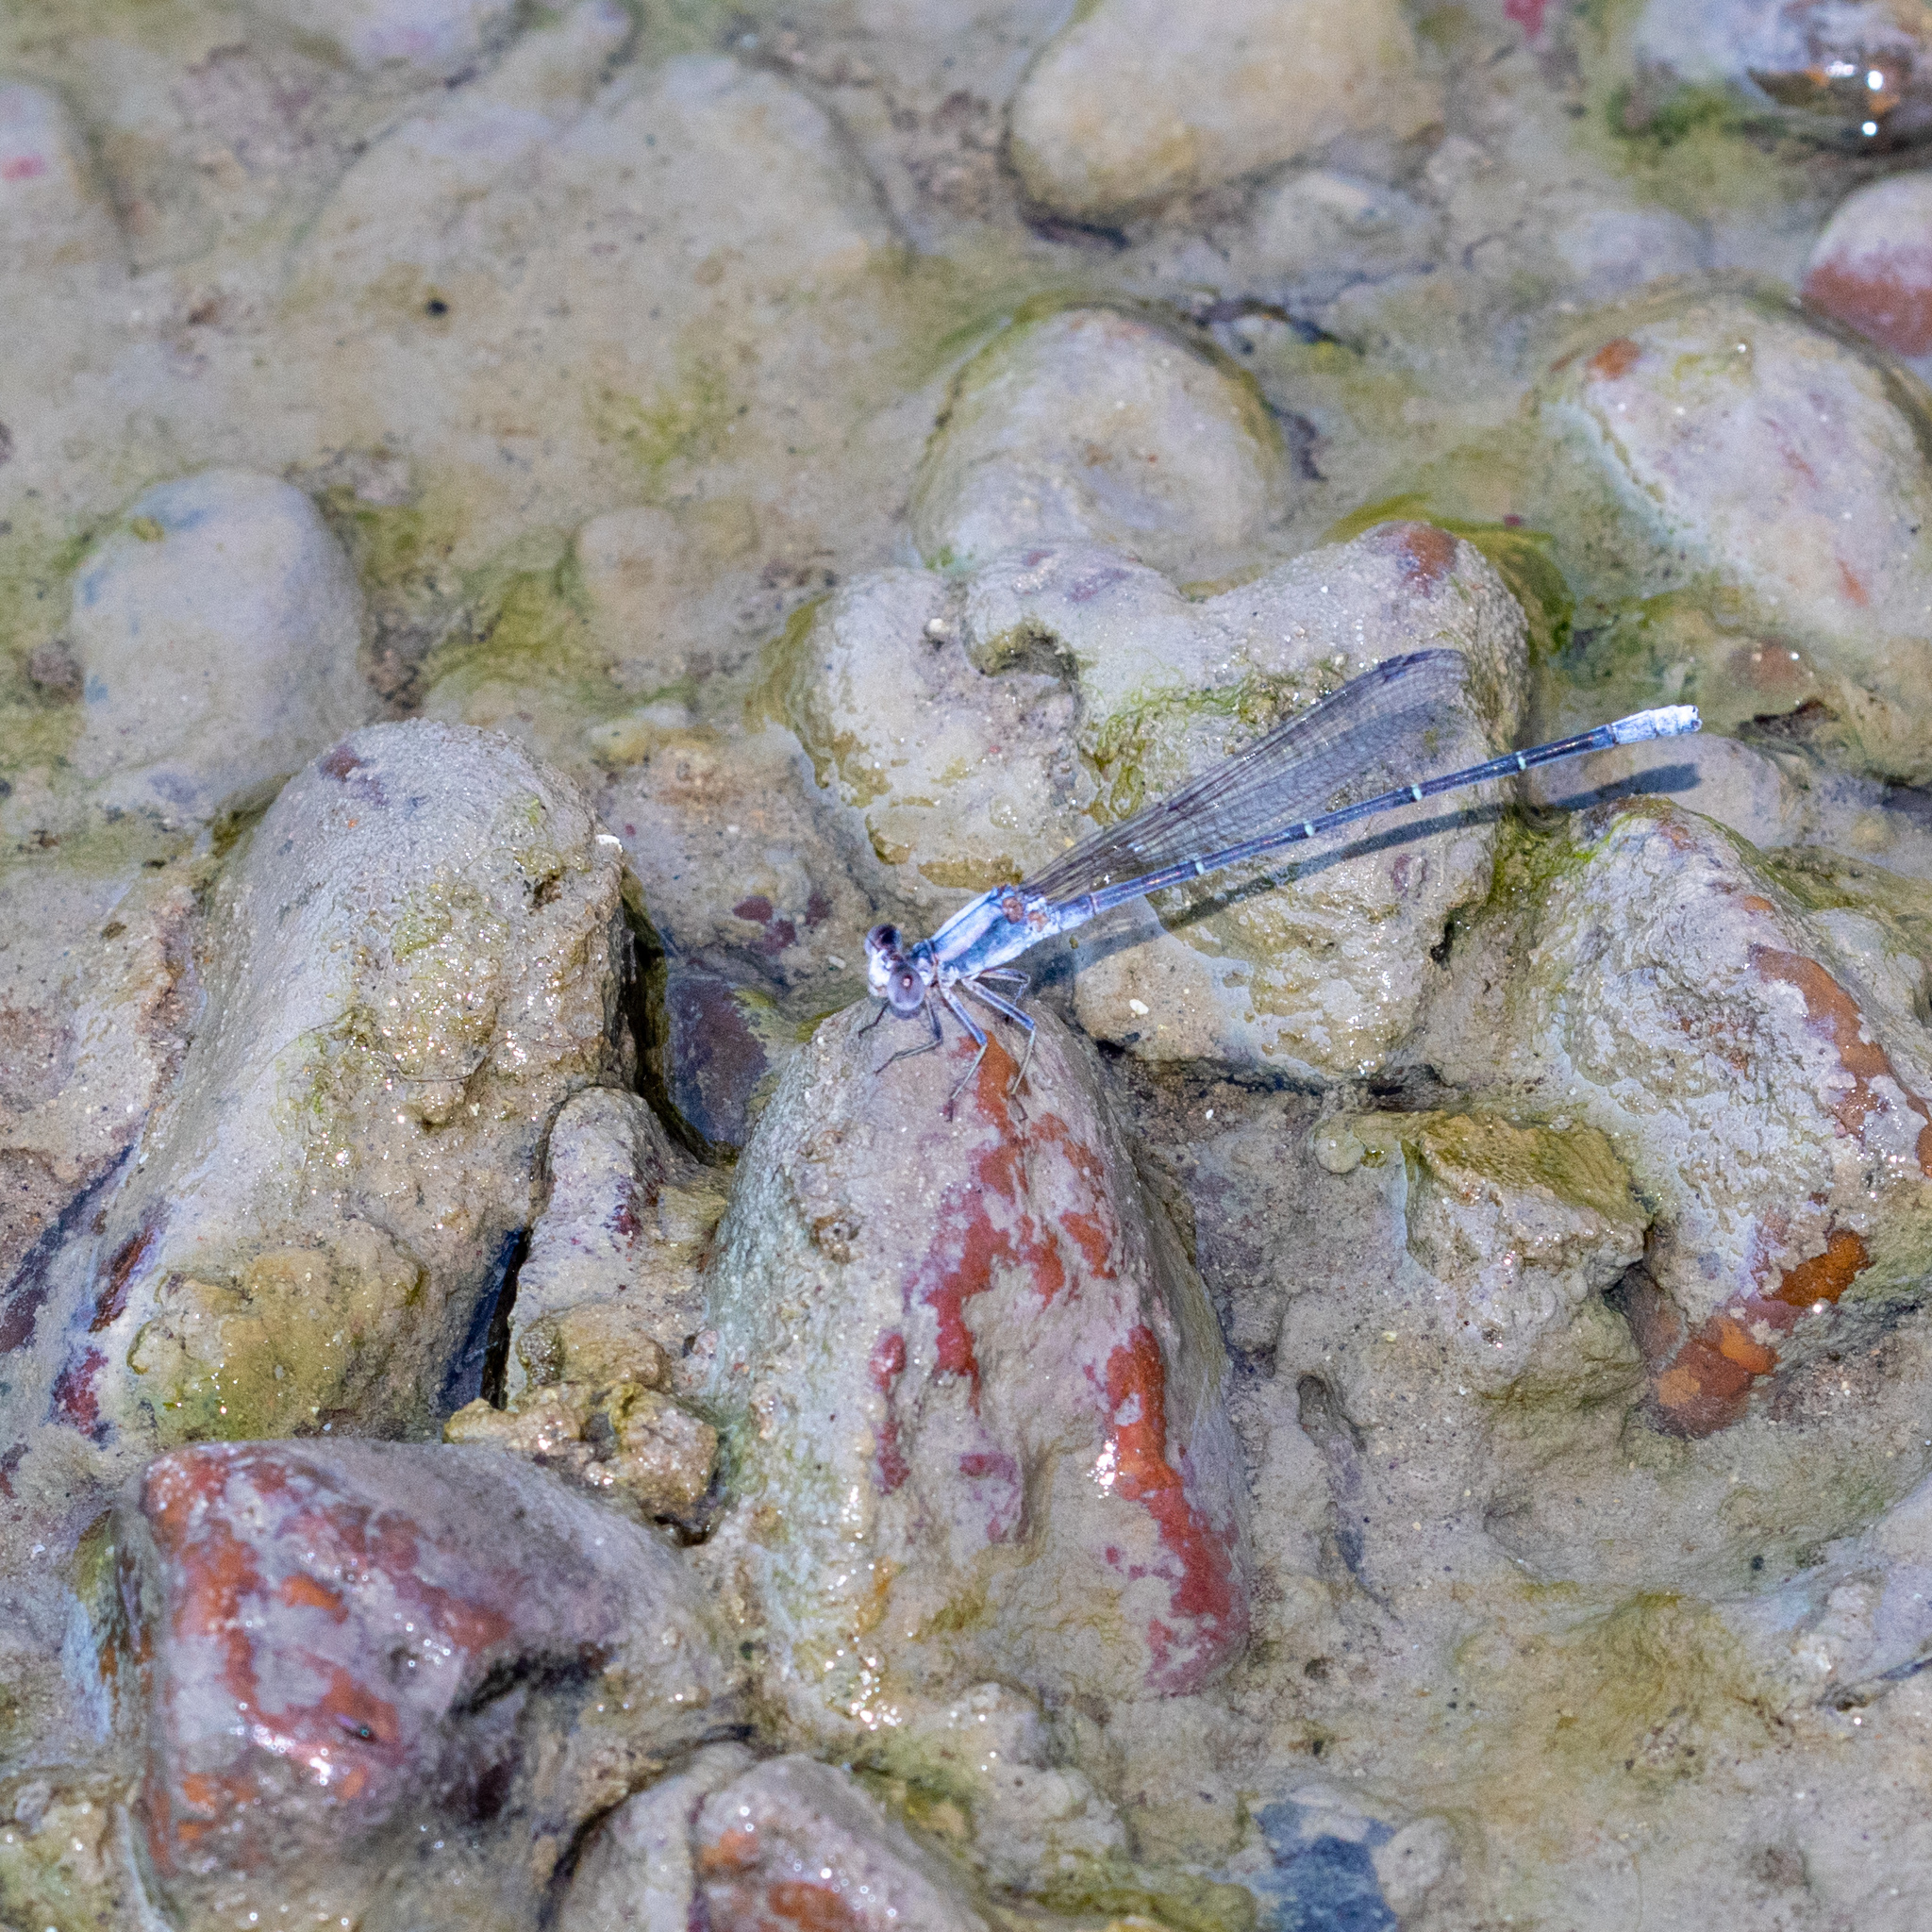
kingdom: Animalia
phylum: Arthropoda
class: Insecta
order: Odonata
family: Coenagrionidae
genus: Argia
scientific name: Argia moesta
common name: Powdered dancer
